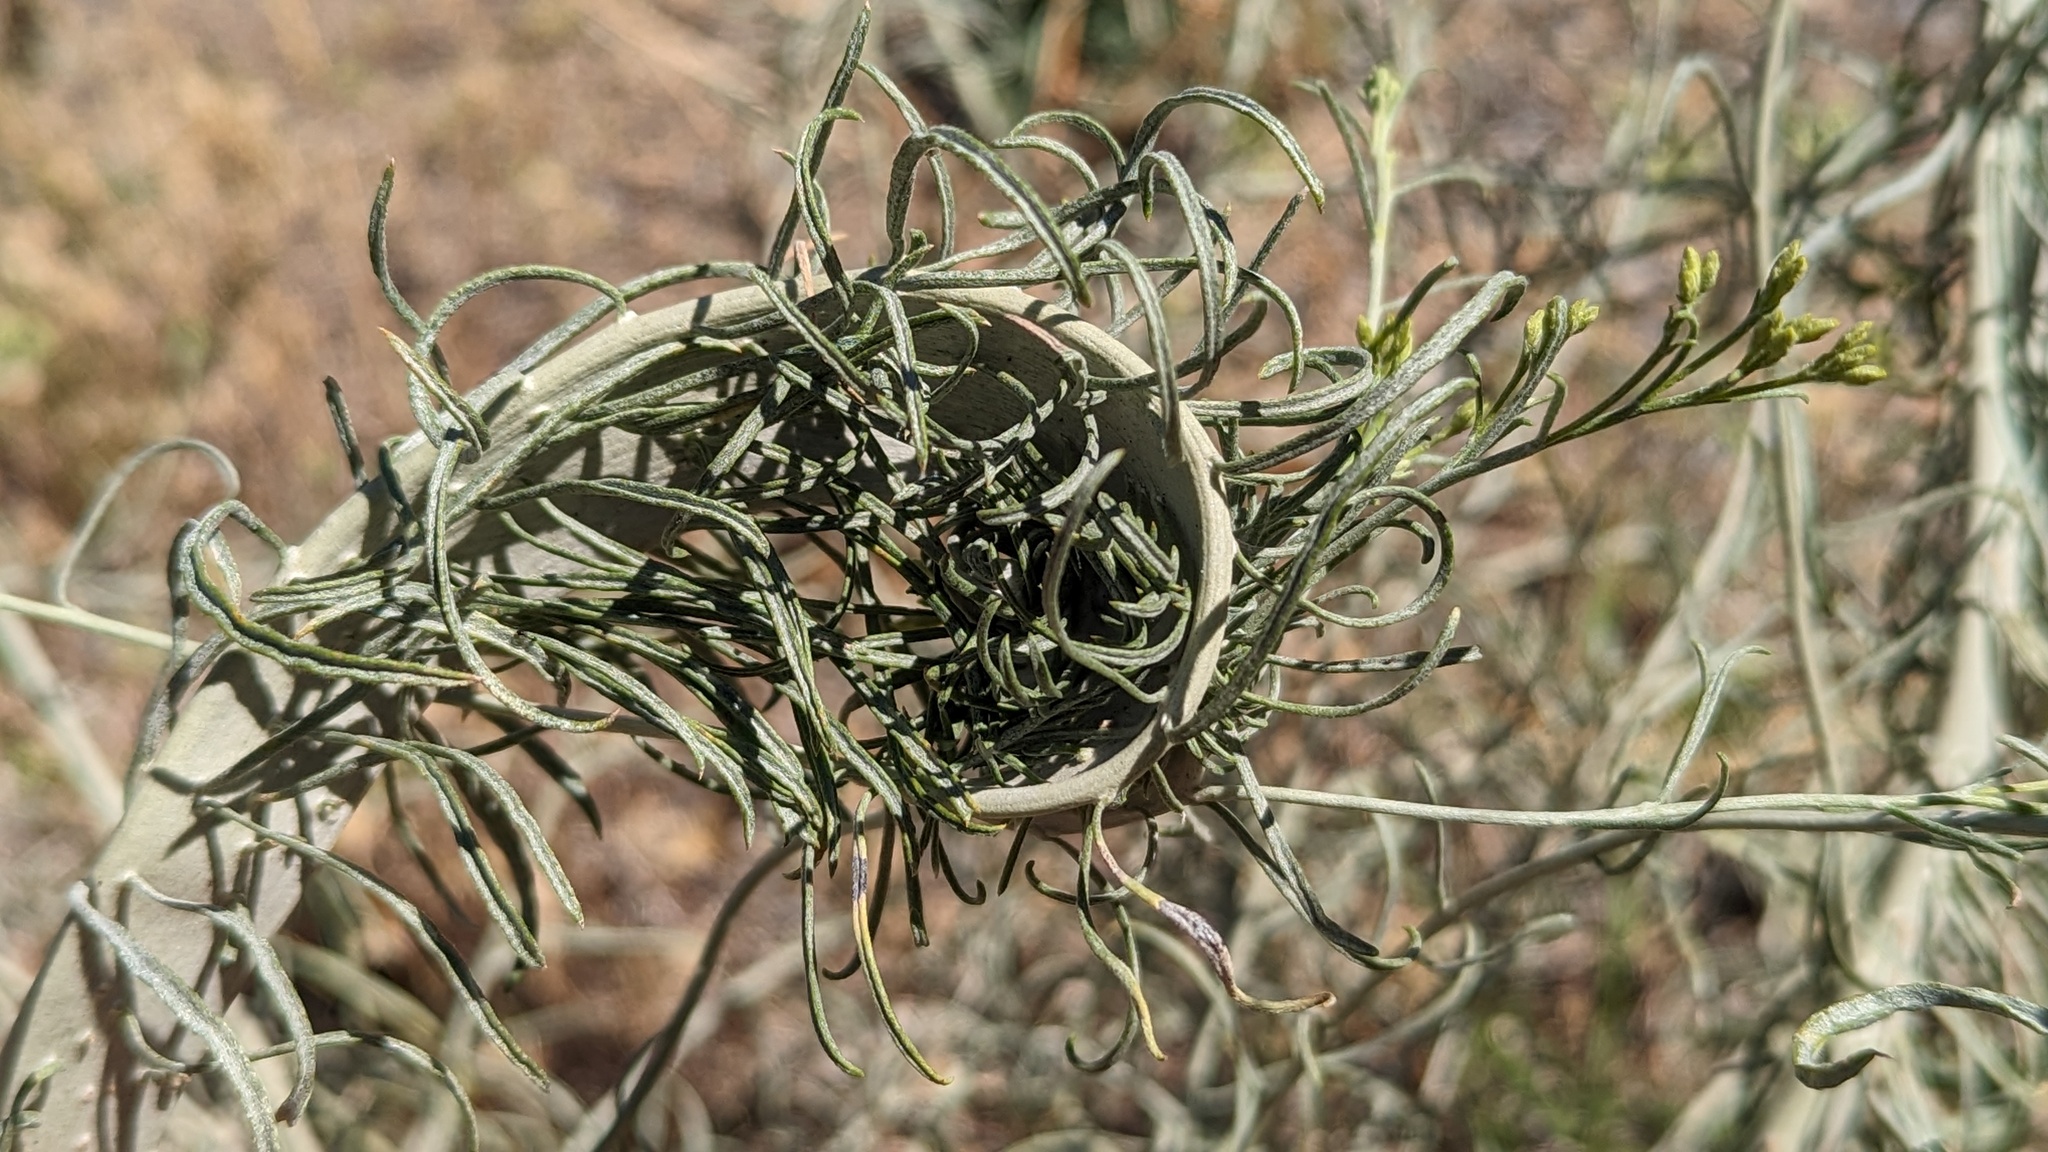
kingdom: Plantae
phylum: Tracheophyta
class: Magnoliopsida
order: Asterales
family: Asteraceae
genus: Ericameria
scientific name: Ericameria nauseosa
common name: Rubber rabbitbrush
